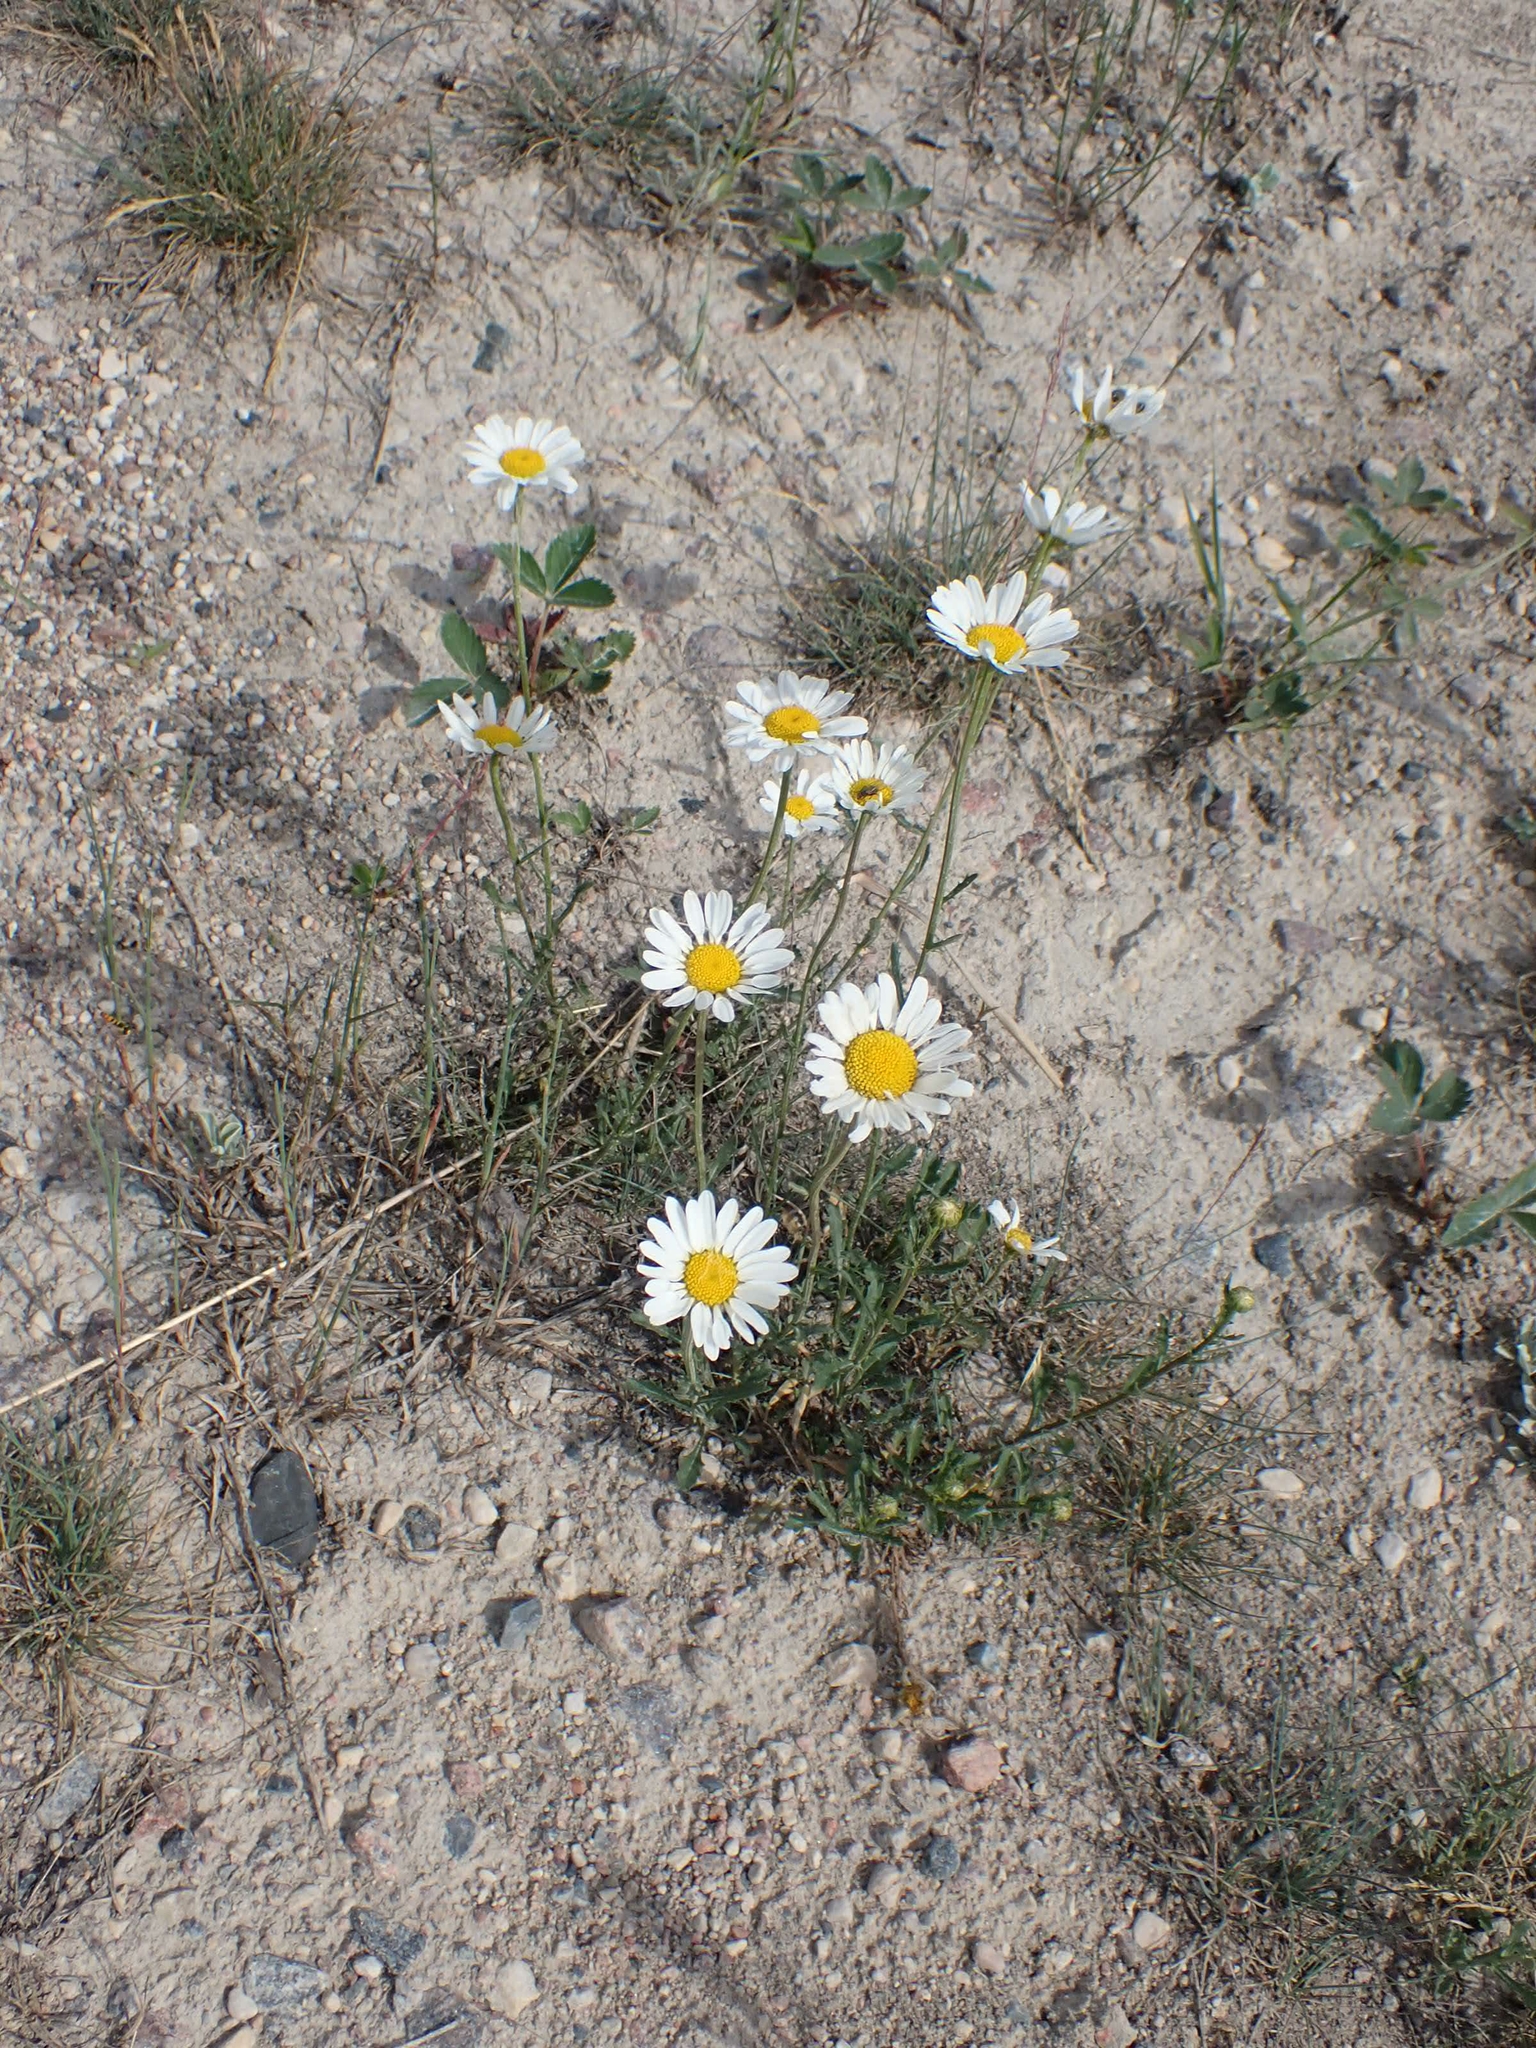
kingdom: Plantae
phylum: Tracheophyta
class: Magnoliopsida
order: Asterales
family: Asteraceae
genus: Leucanthemum
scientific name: Leucanthemum vulgare
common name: Oxeye daisy
